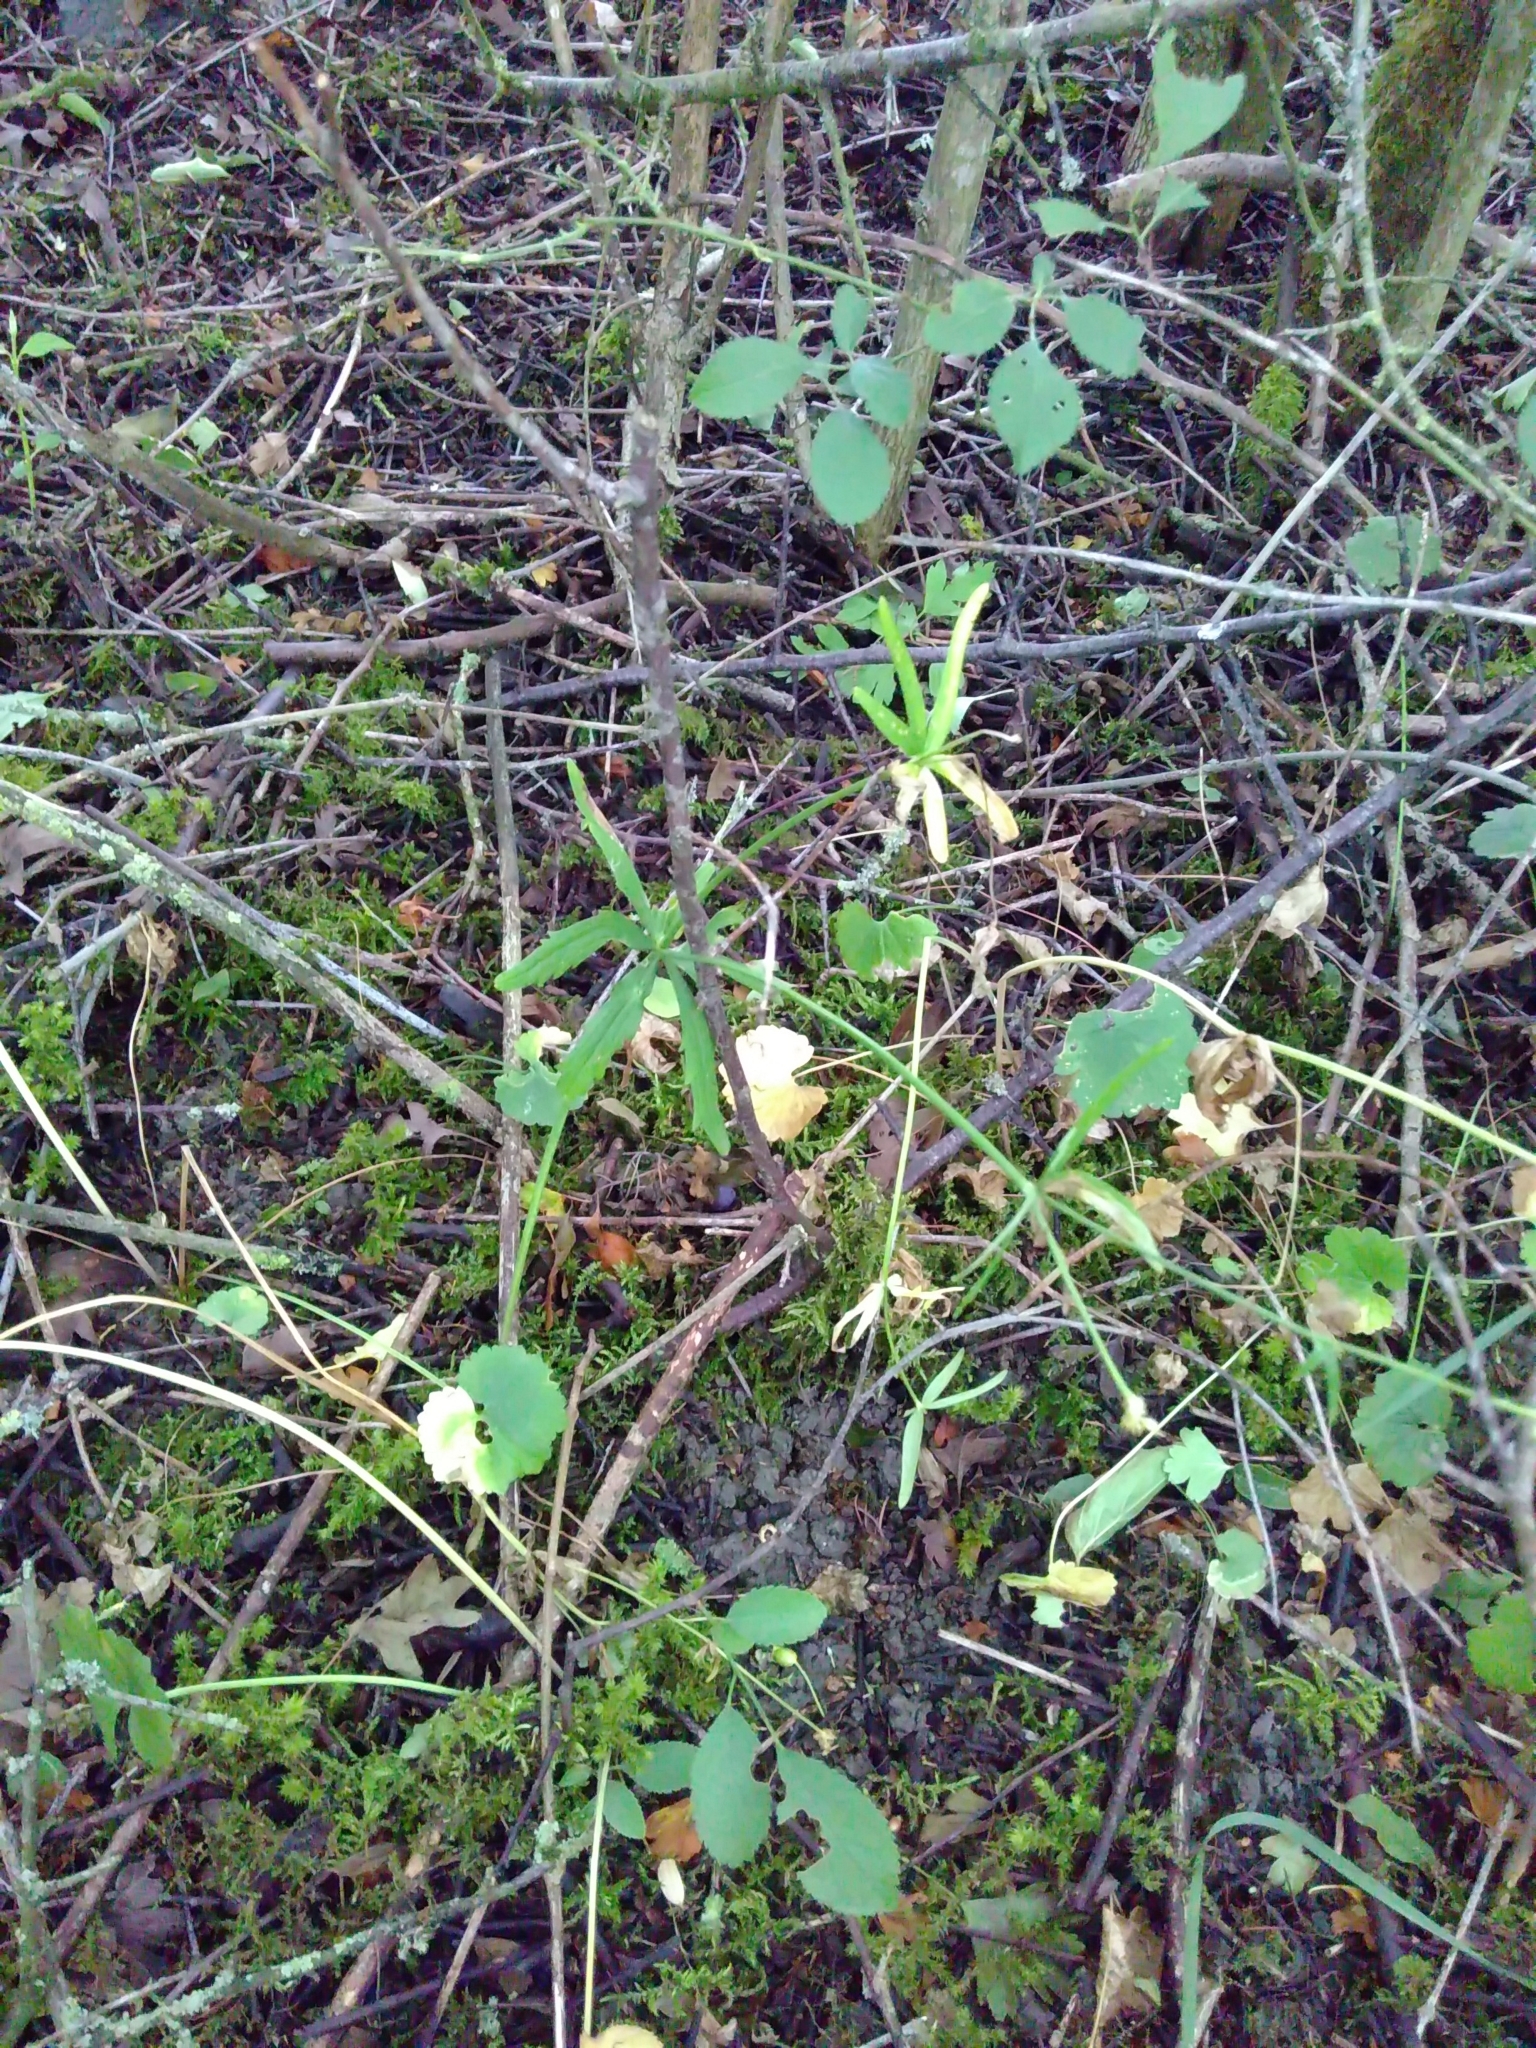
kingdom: Plantae
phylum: Tracheophyta
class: Magnoliopsida
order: Ranunculales
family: Ranunculaceae
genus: Ranunculus
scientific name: Ranunculus auricomus
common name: Goldilocks buttercup
